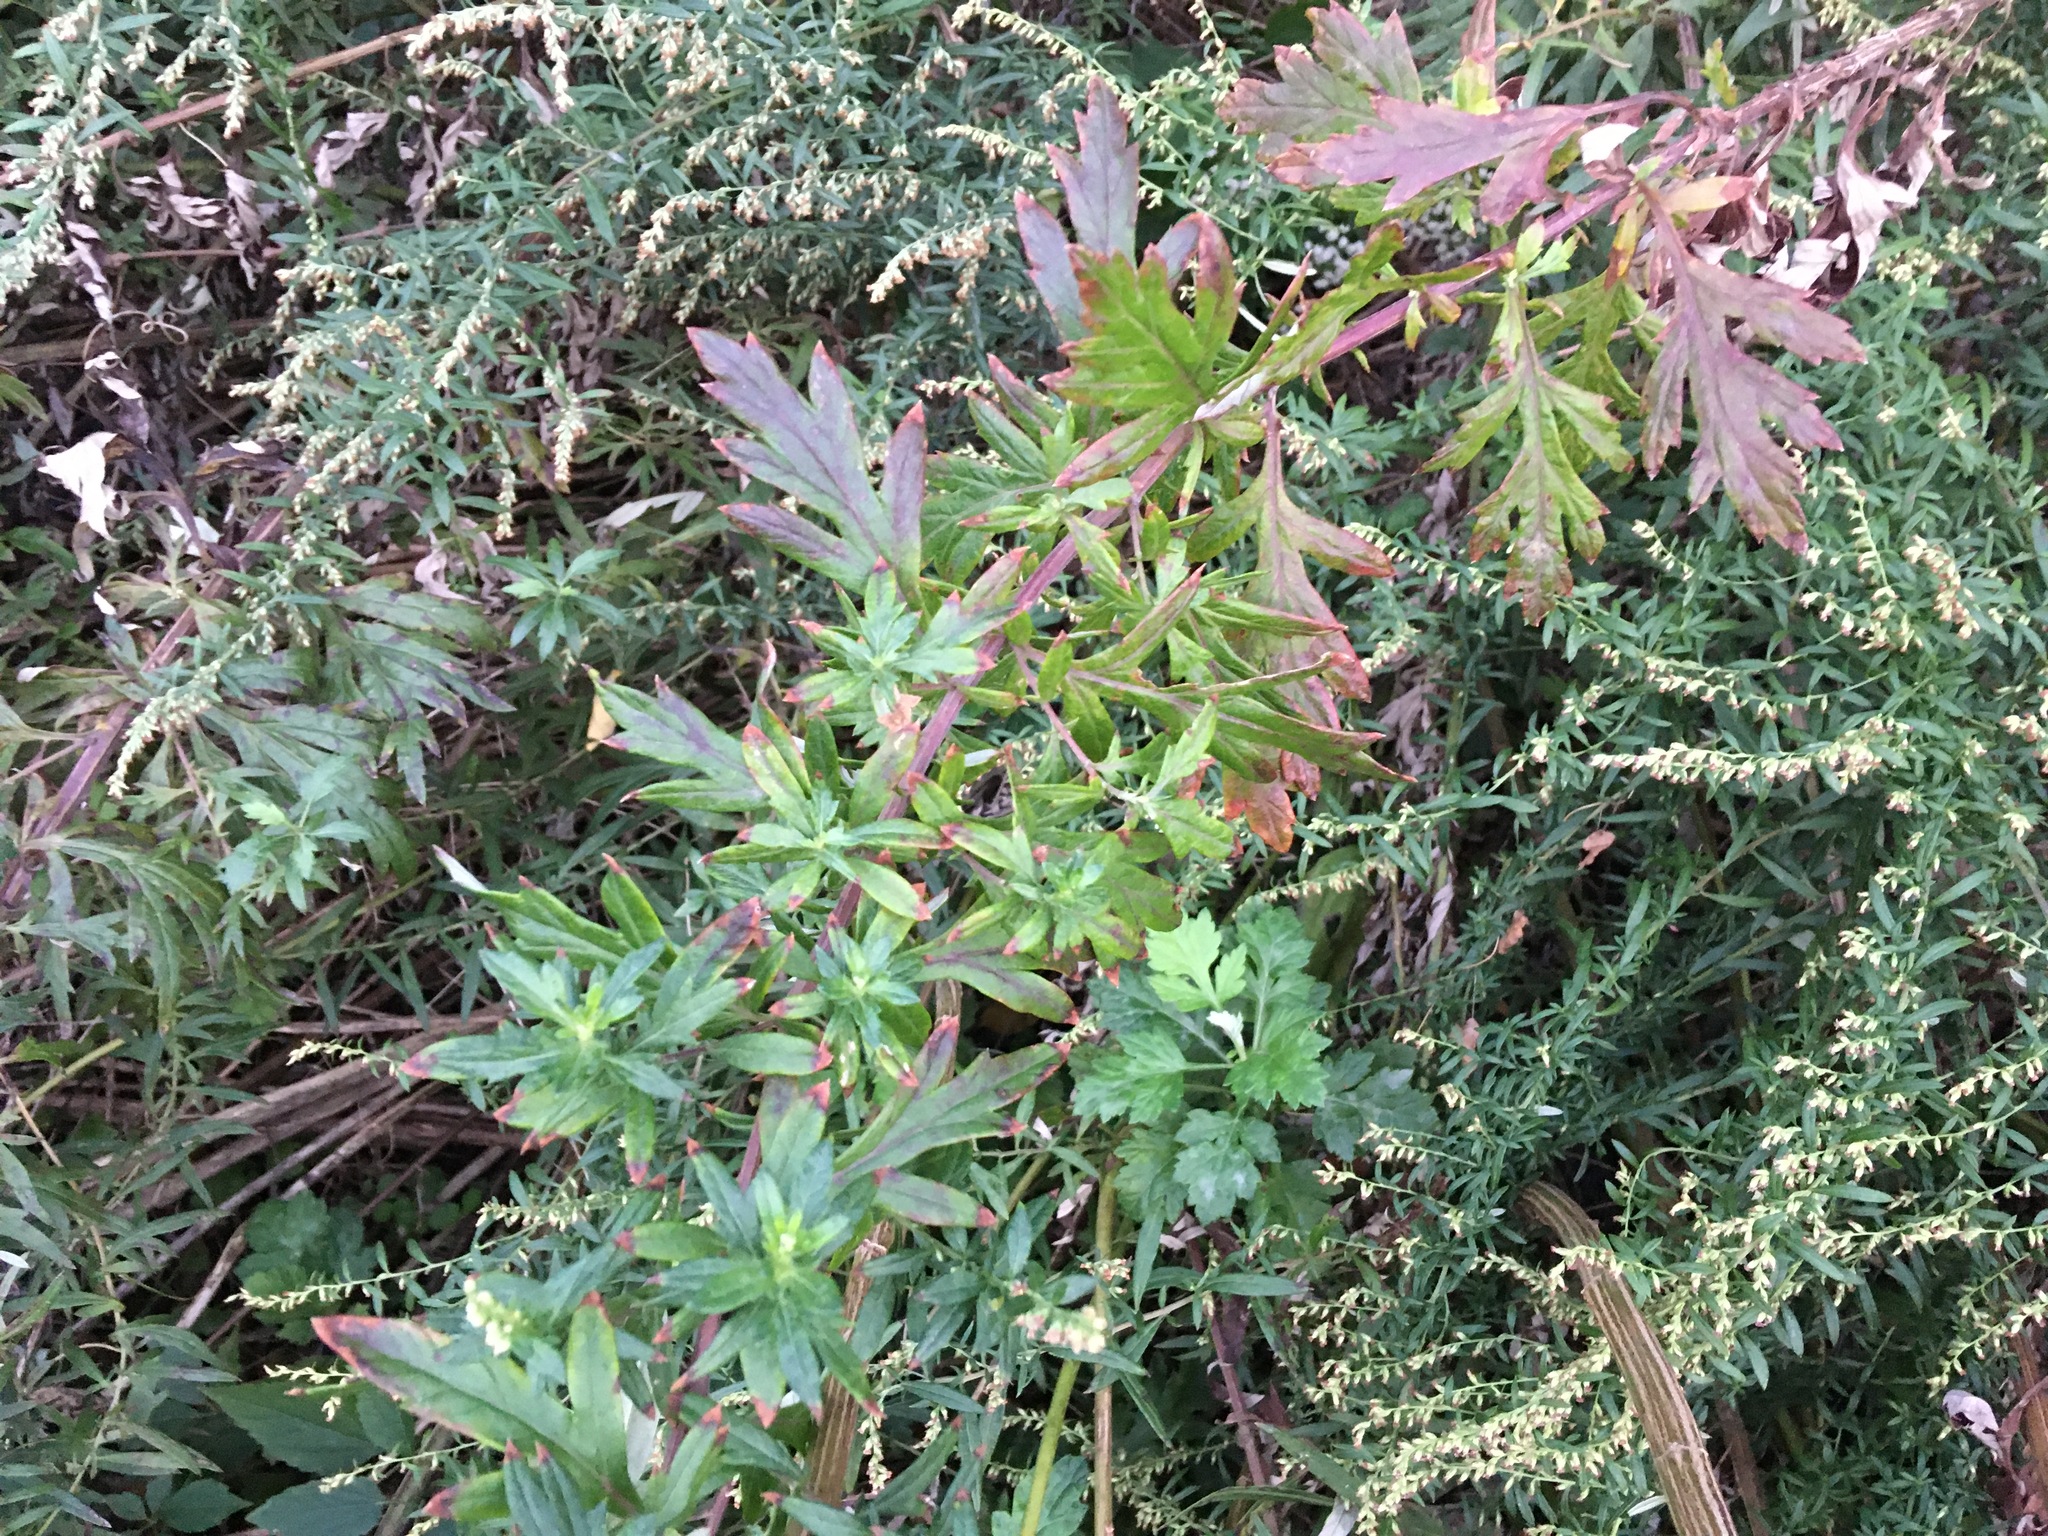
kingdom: Plantae
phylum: Tracheophyta
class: Magnoliopsida
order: Asterales
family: Asteraceae
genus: Artemisia
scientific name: Artemisia vulgaris
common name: Mugwort
